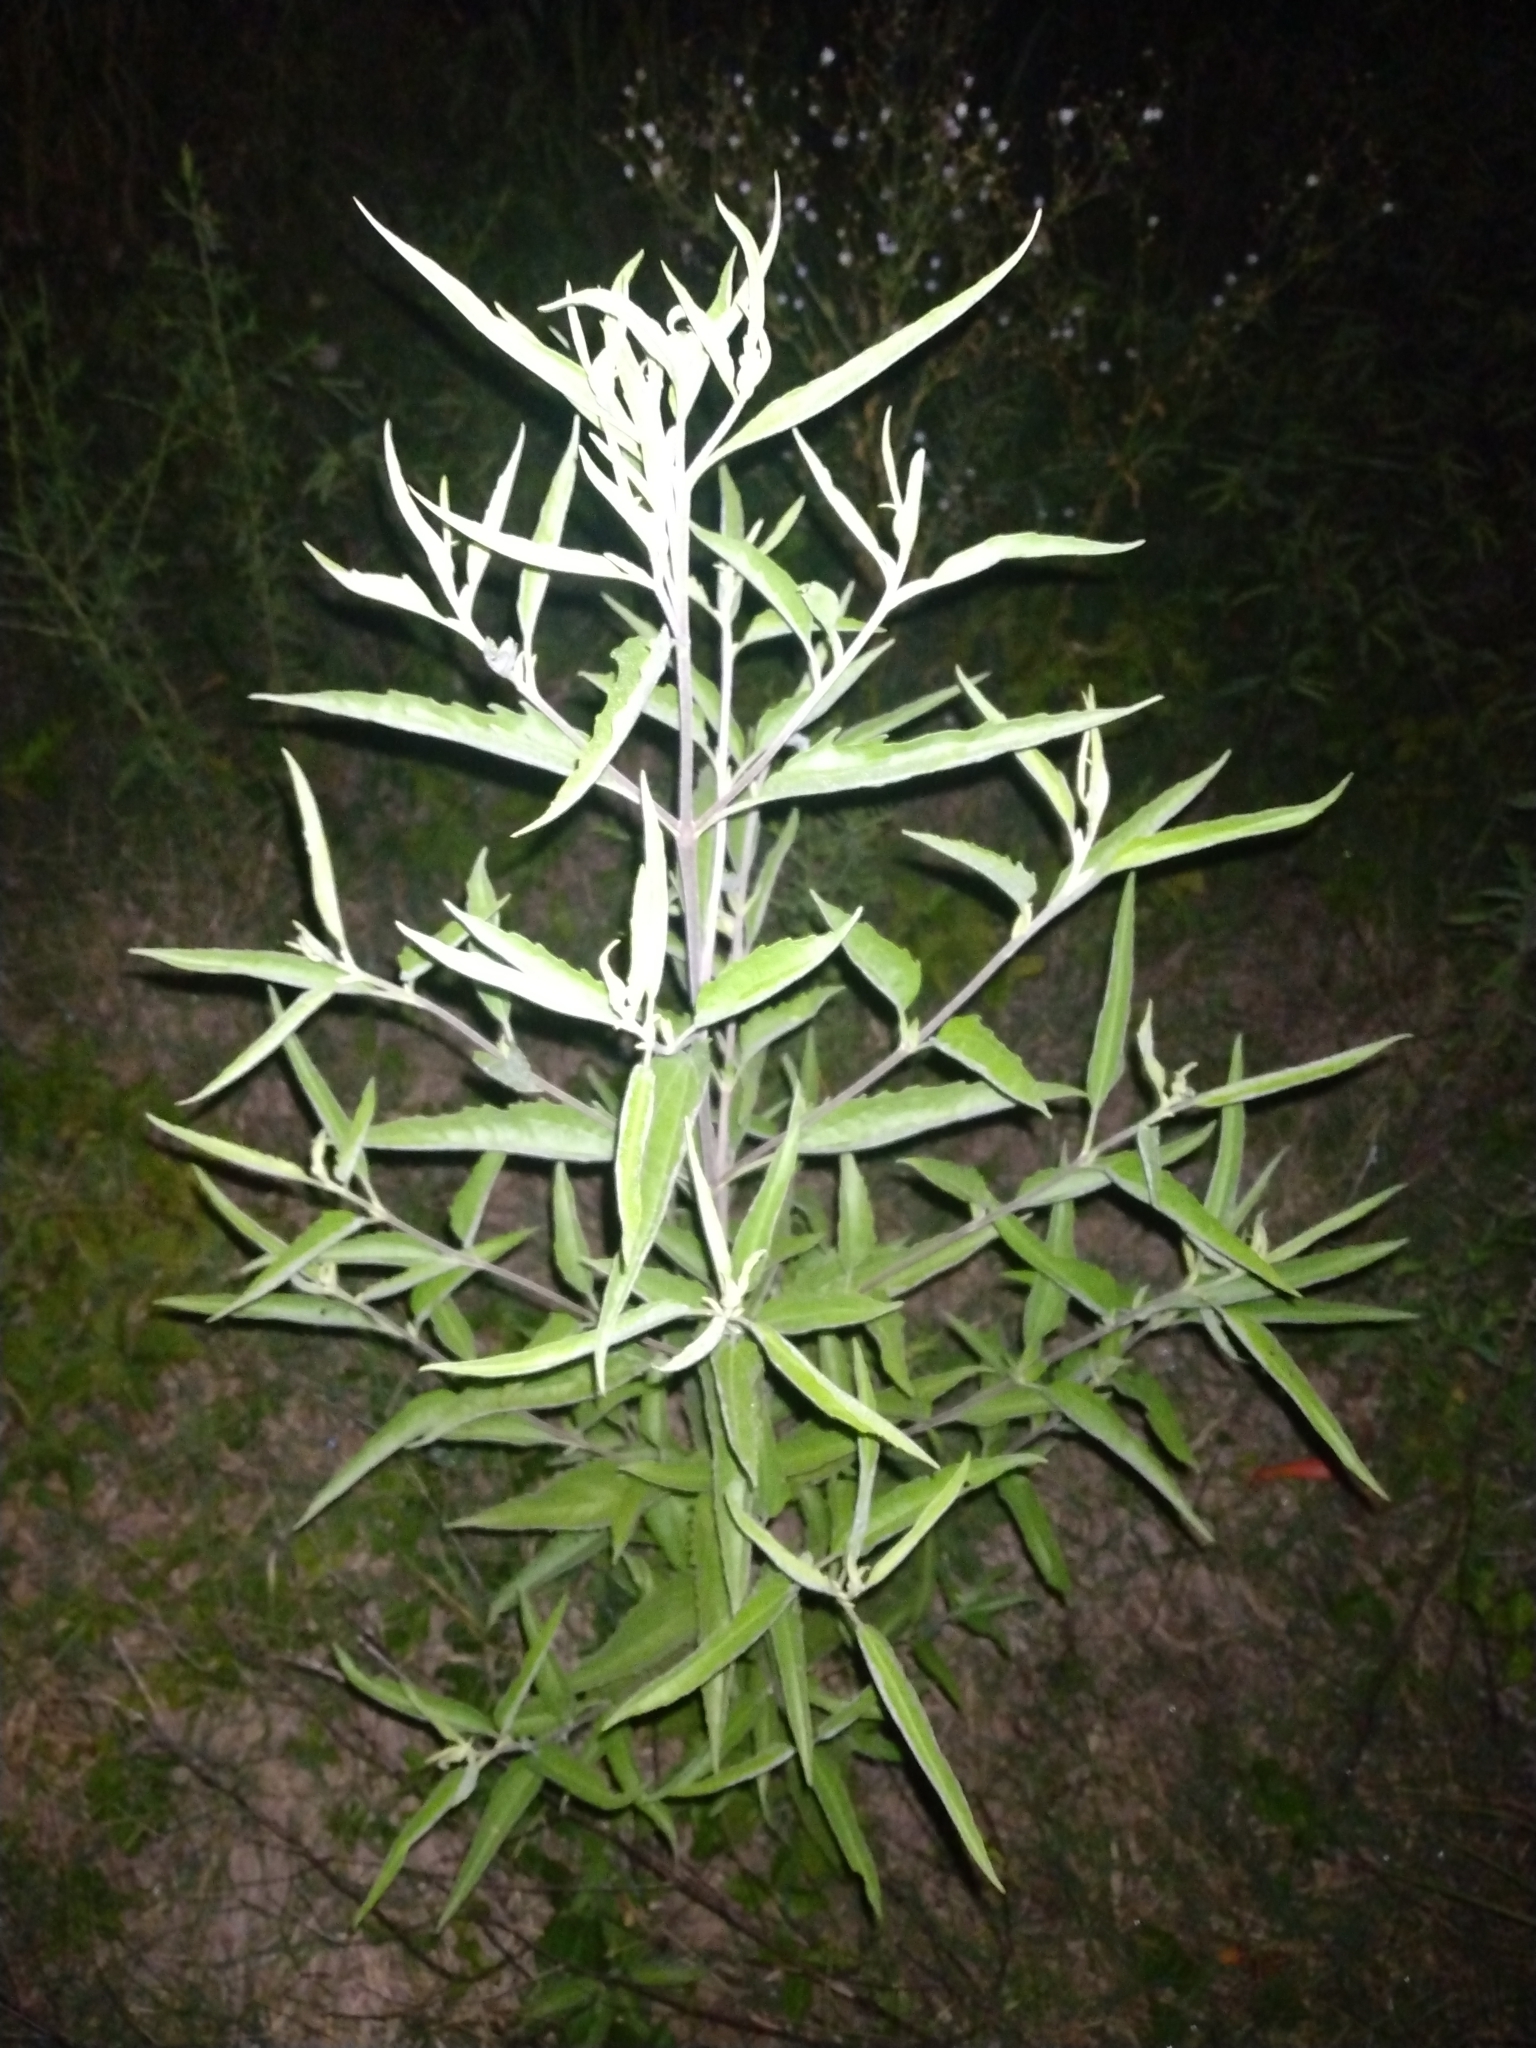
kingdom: Plantae
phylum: Tracheophyta
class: Magnoliopsida
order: Asterales
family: Asteraceae
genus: Eupatorium
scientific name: Eupatorium serotinum
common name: Late boneset
